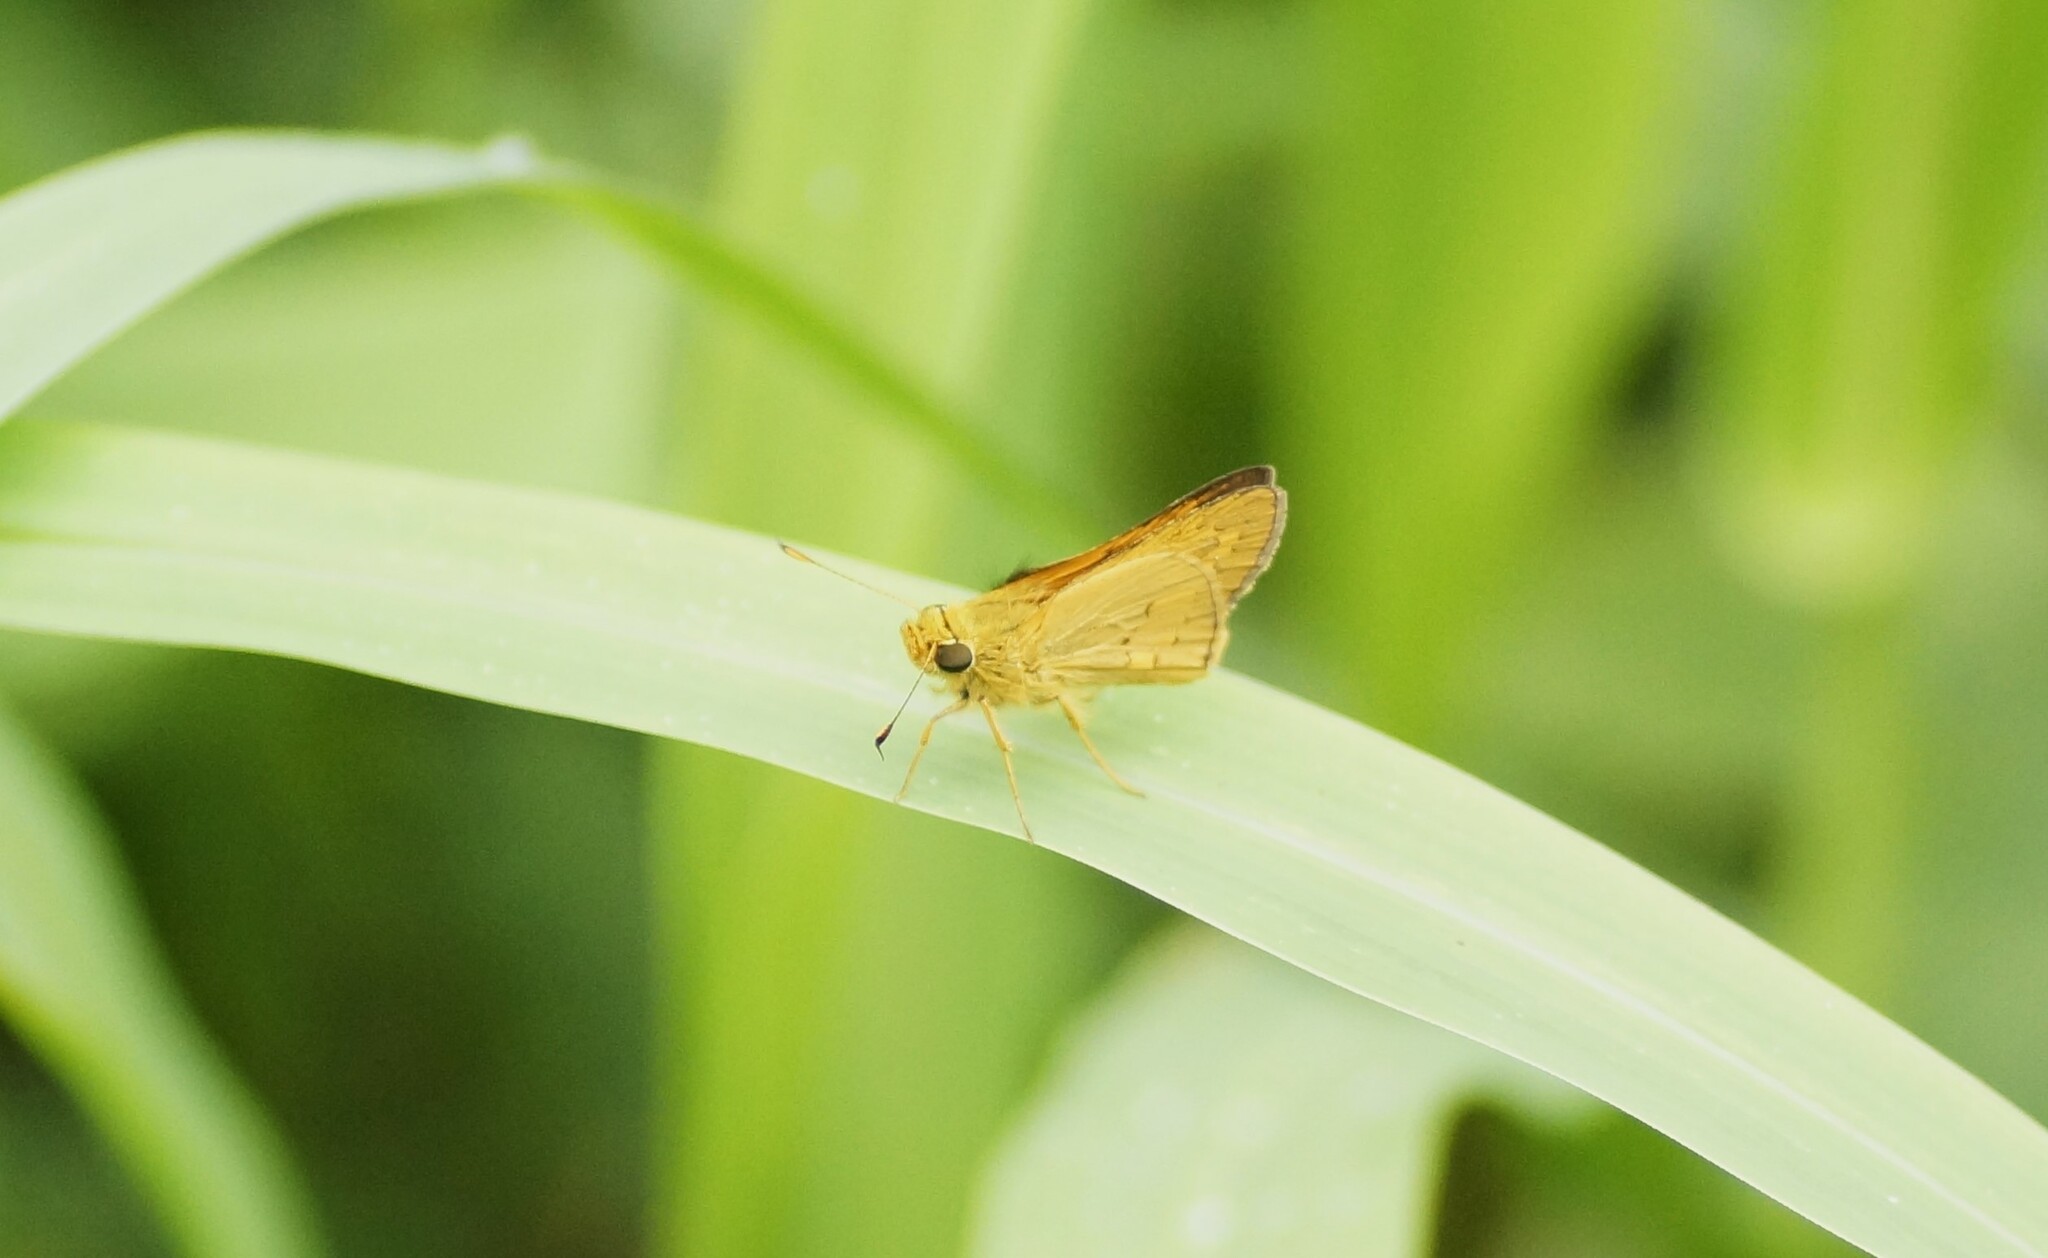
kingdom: Animalia
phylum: Arthropoda
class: Insecta
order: Lepidoptera
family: Hesperiidae
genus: Telicota
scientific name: Telicota colon
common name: Pale palm dart
